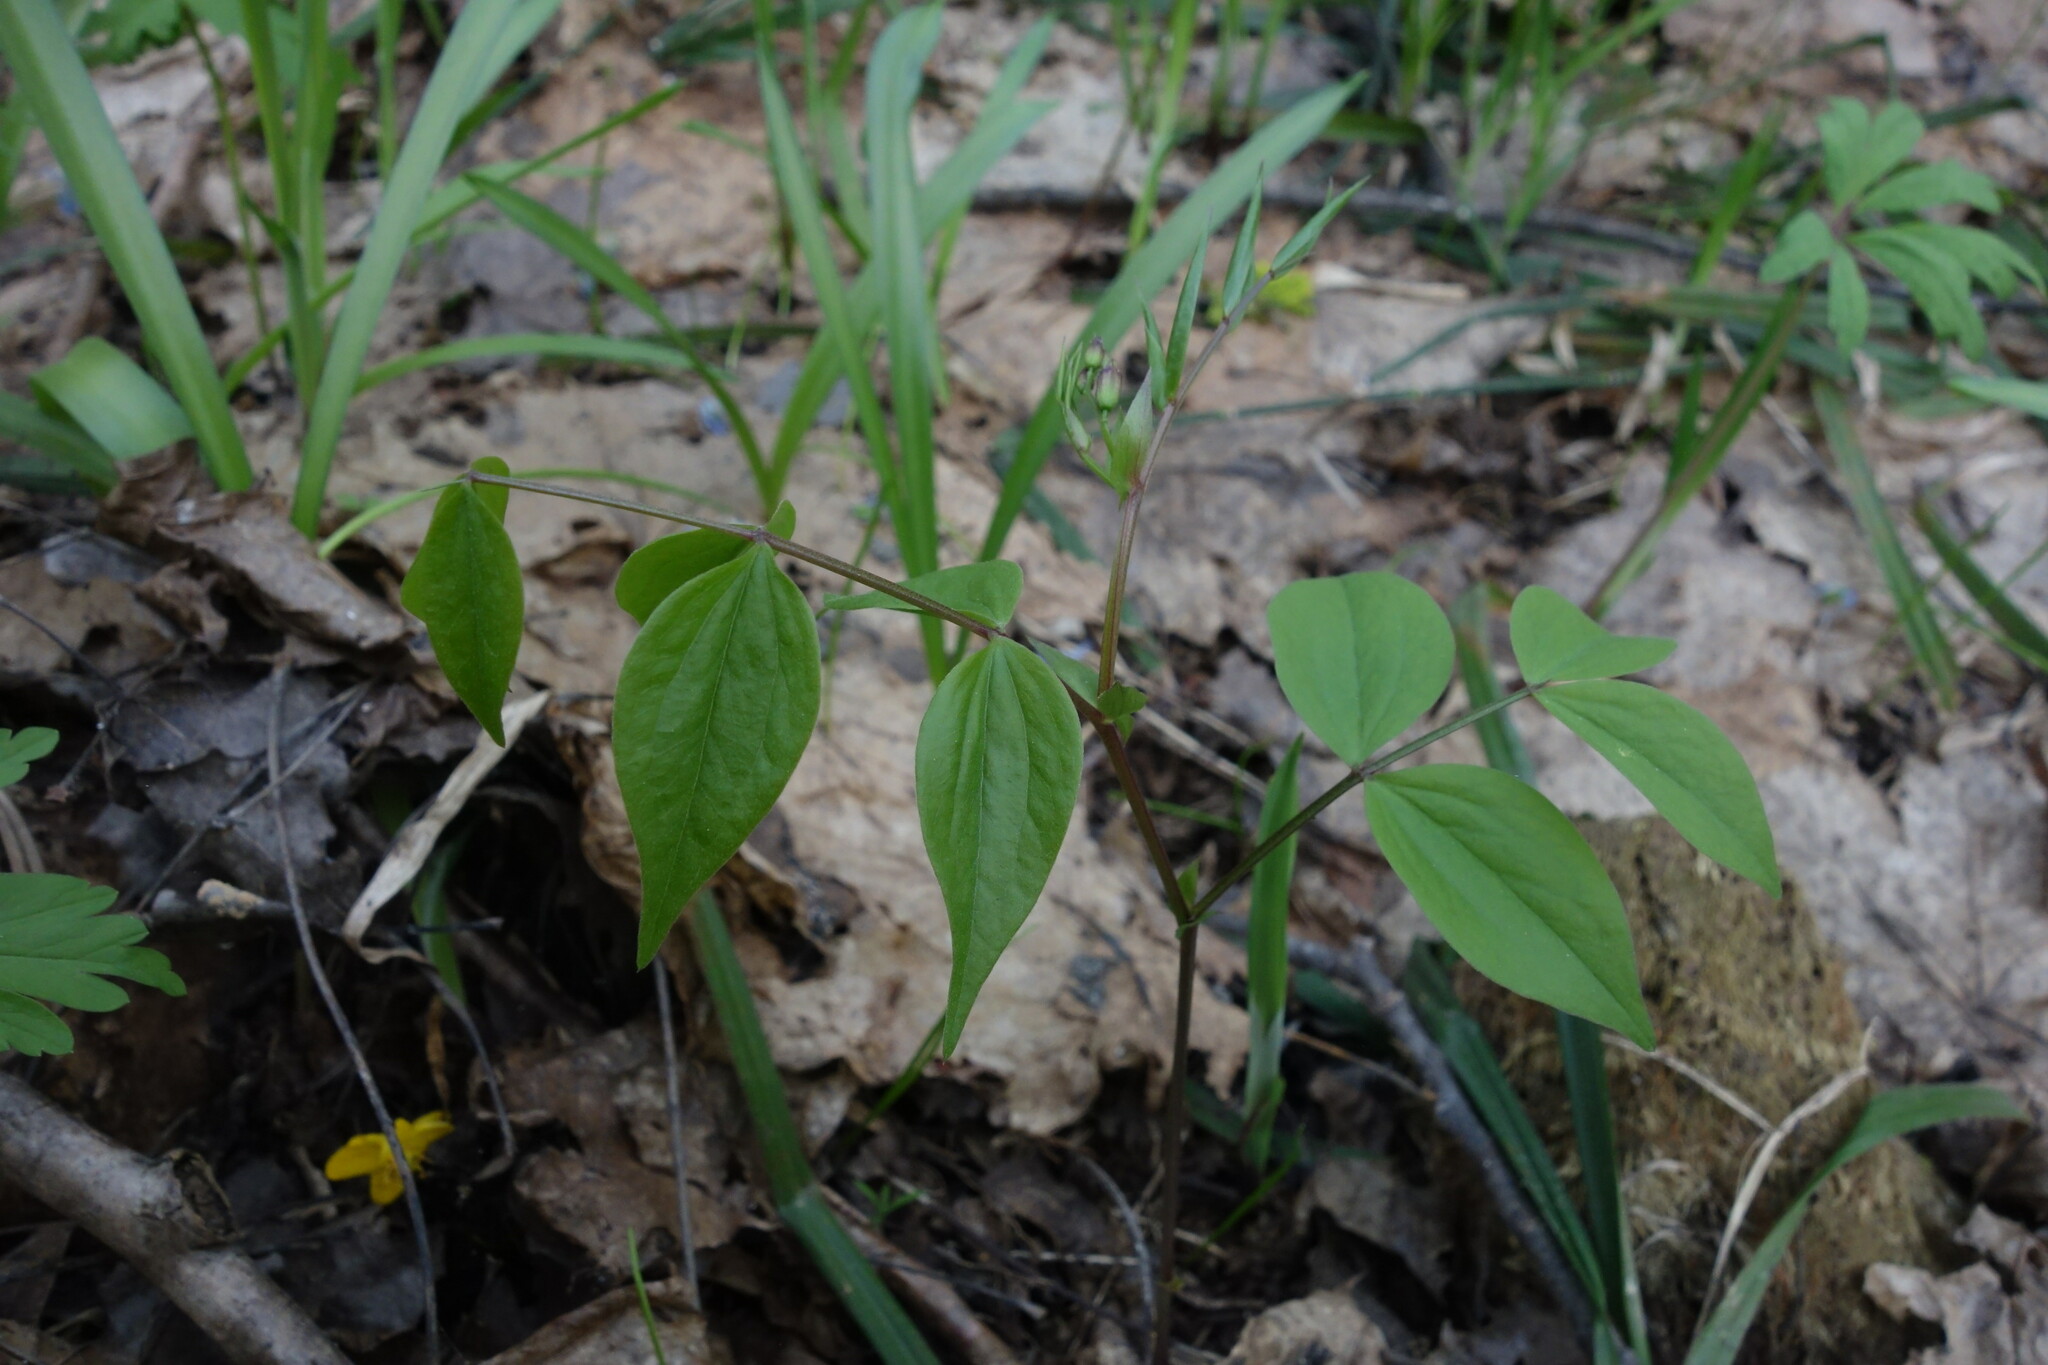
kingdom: Plantae
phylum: Tracheophyta
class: Magnoliopsida
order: Fabales
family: Fabaceae
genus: Lathyrus
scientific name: Lathyrus vernus
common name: Spring pea
